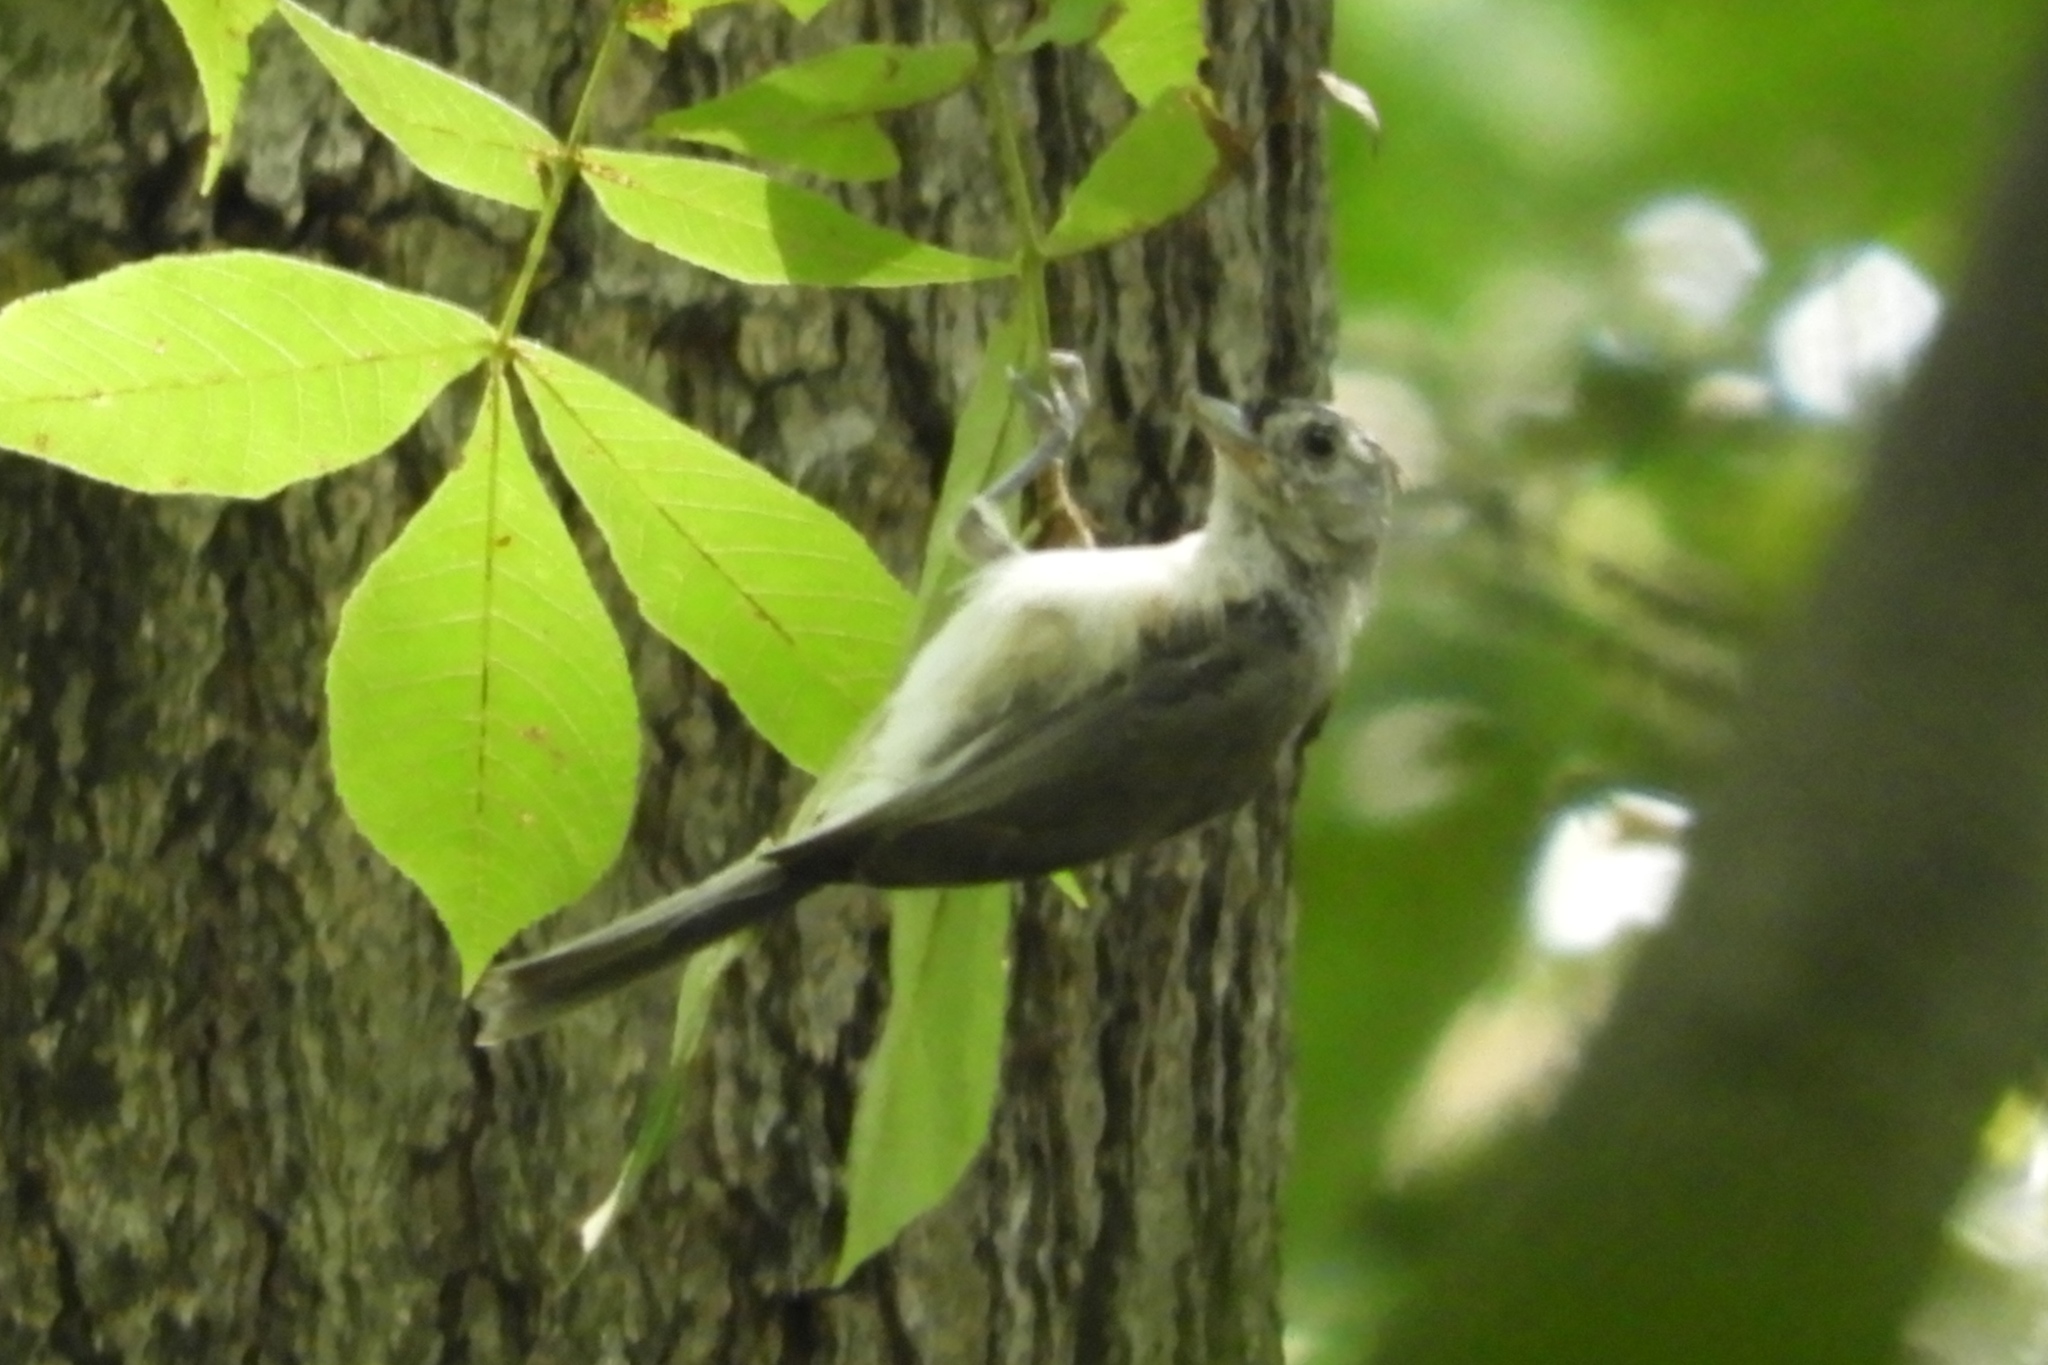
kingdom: Animalia
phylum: Chordata
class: Aves
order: Passeriformes
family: Paridae
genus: Baeolophus
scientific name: Baeolophus bicolor
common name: Tufted titmouse
